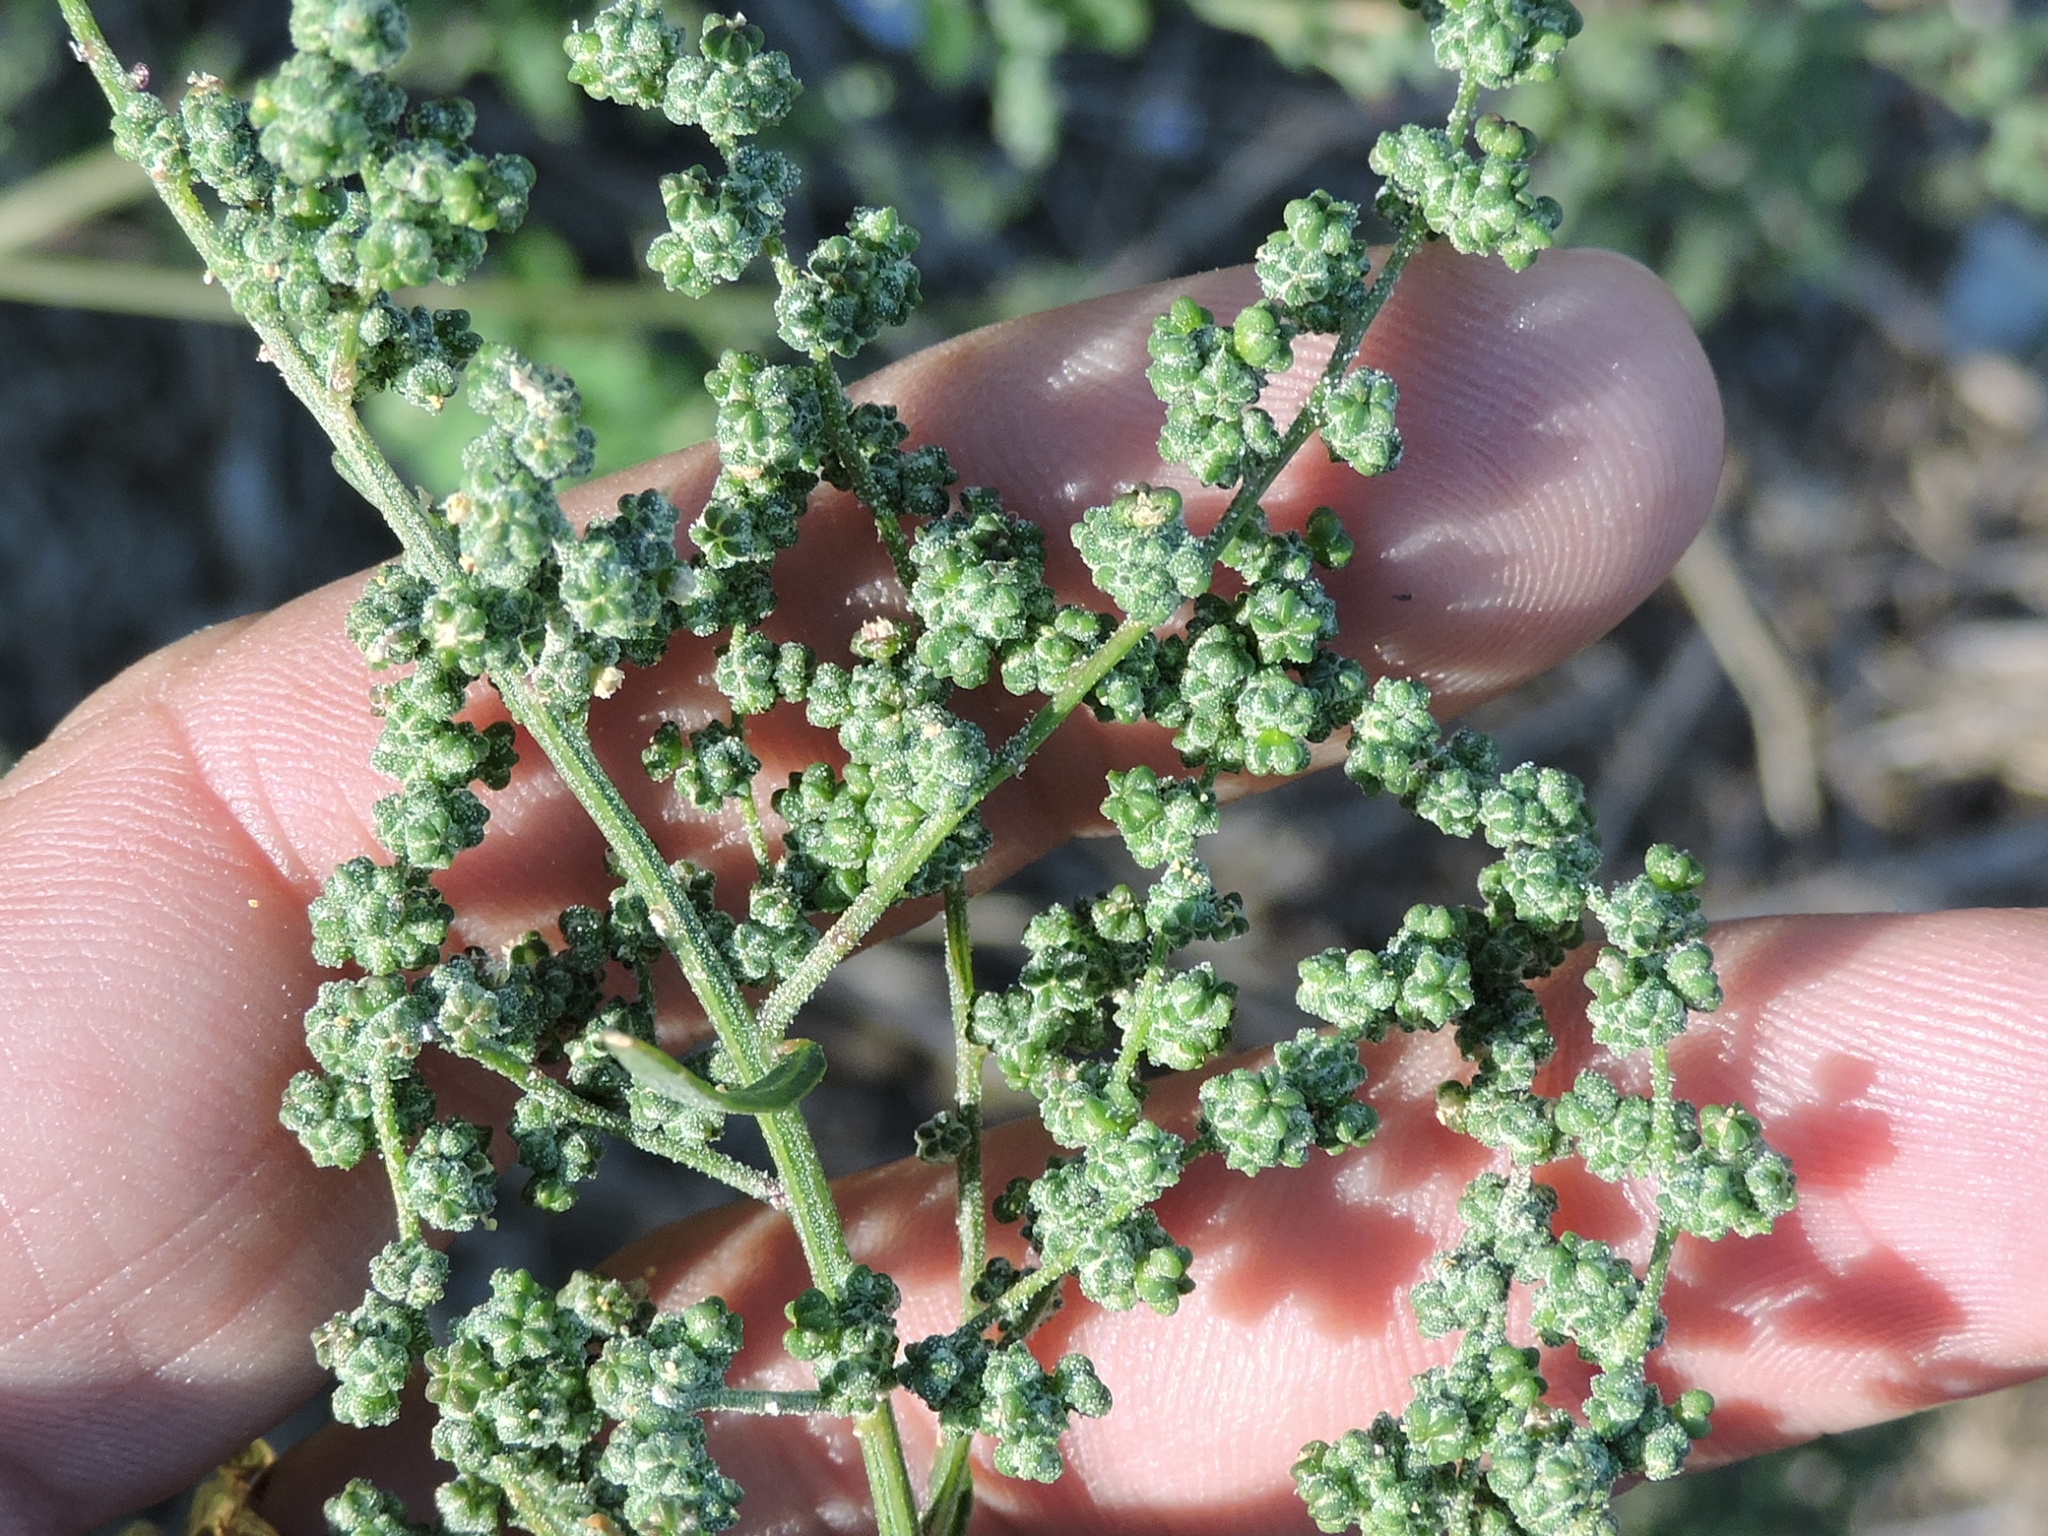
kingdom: Plantae
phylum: Tracheophyta
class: Magnoliopsida
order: Caryophyllales
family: Amaranthaceae
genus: Chenopodium
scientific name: Chenopodium album
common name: Fat-hen
